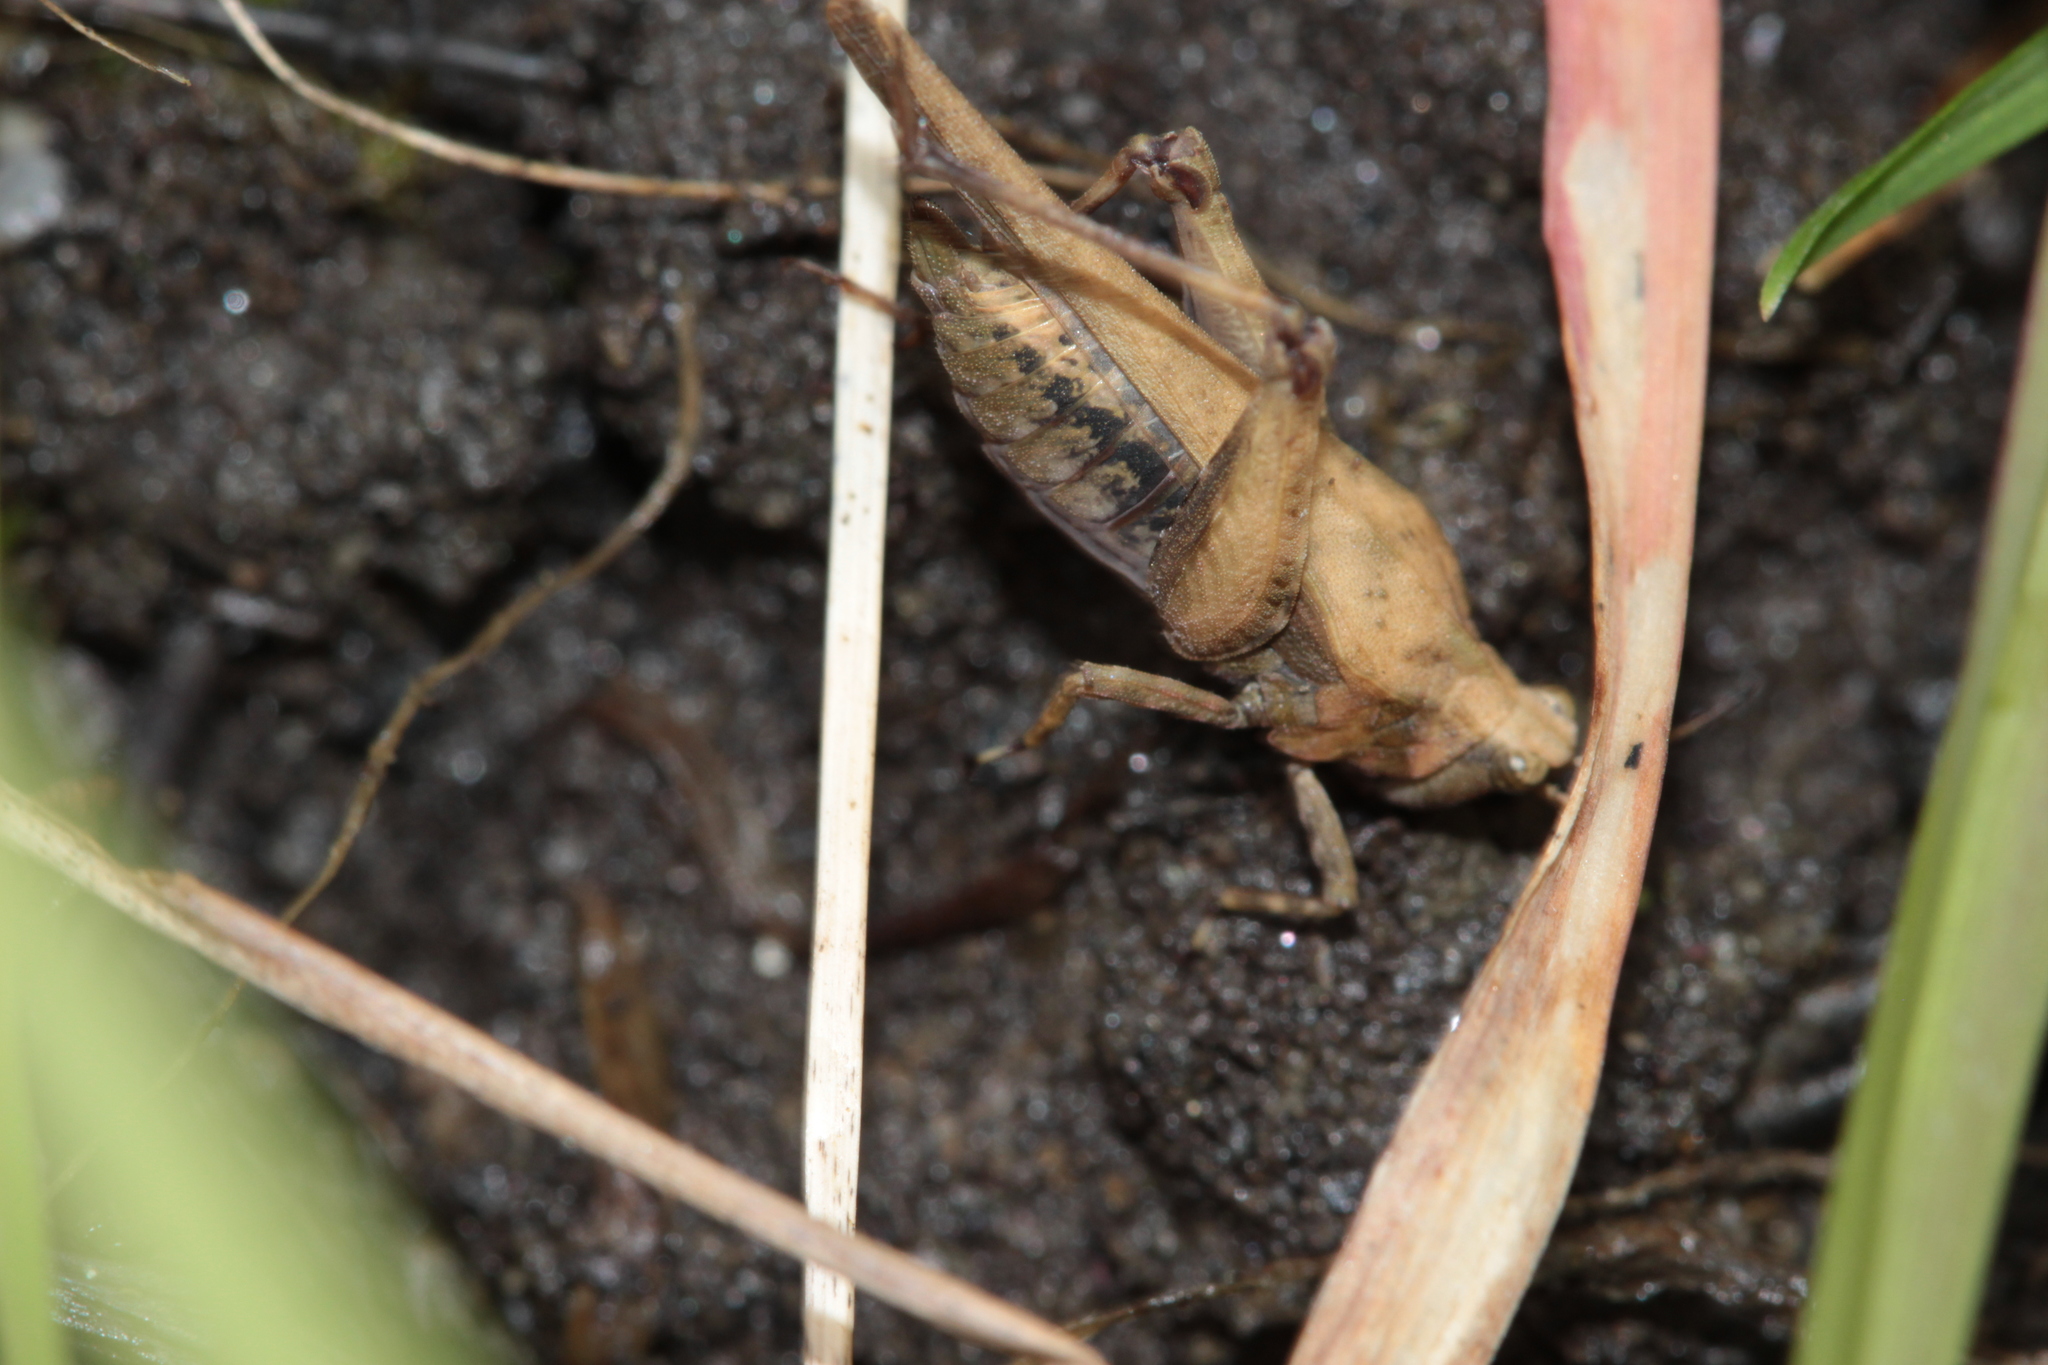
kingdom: Animalia
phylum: Arthropoda
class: Insecta
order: Orthoptera
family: Tetrigidae
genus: Tetrix
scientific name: Tetrix subulata
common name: Slender ground-hopper
